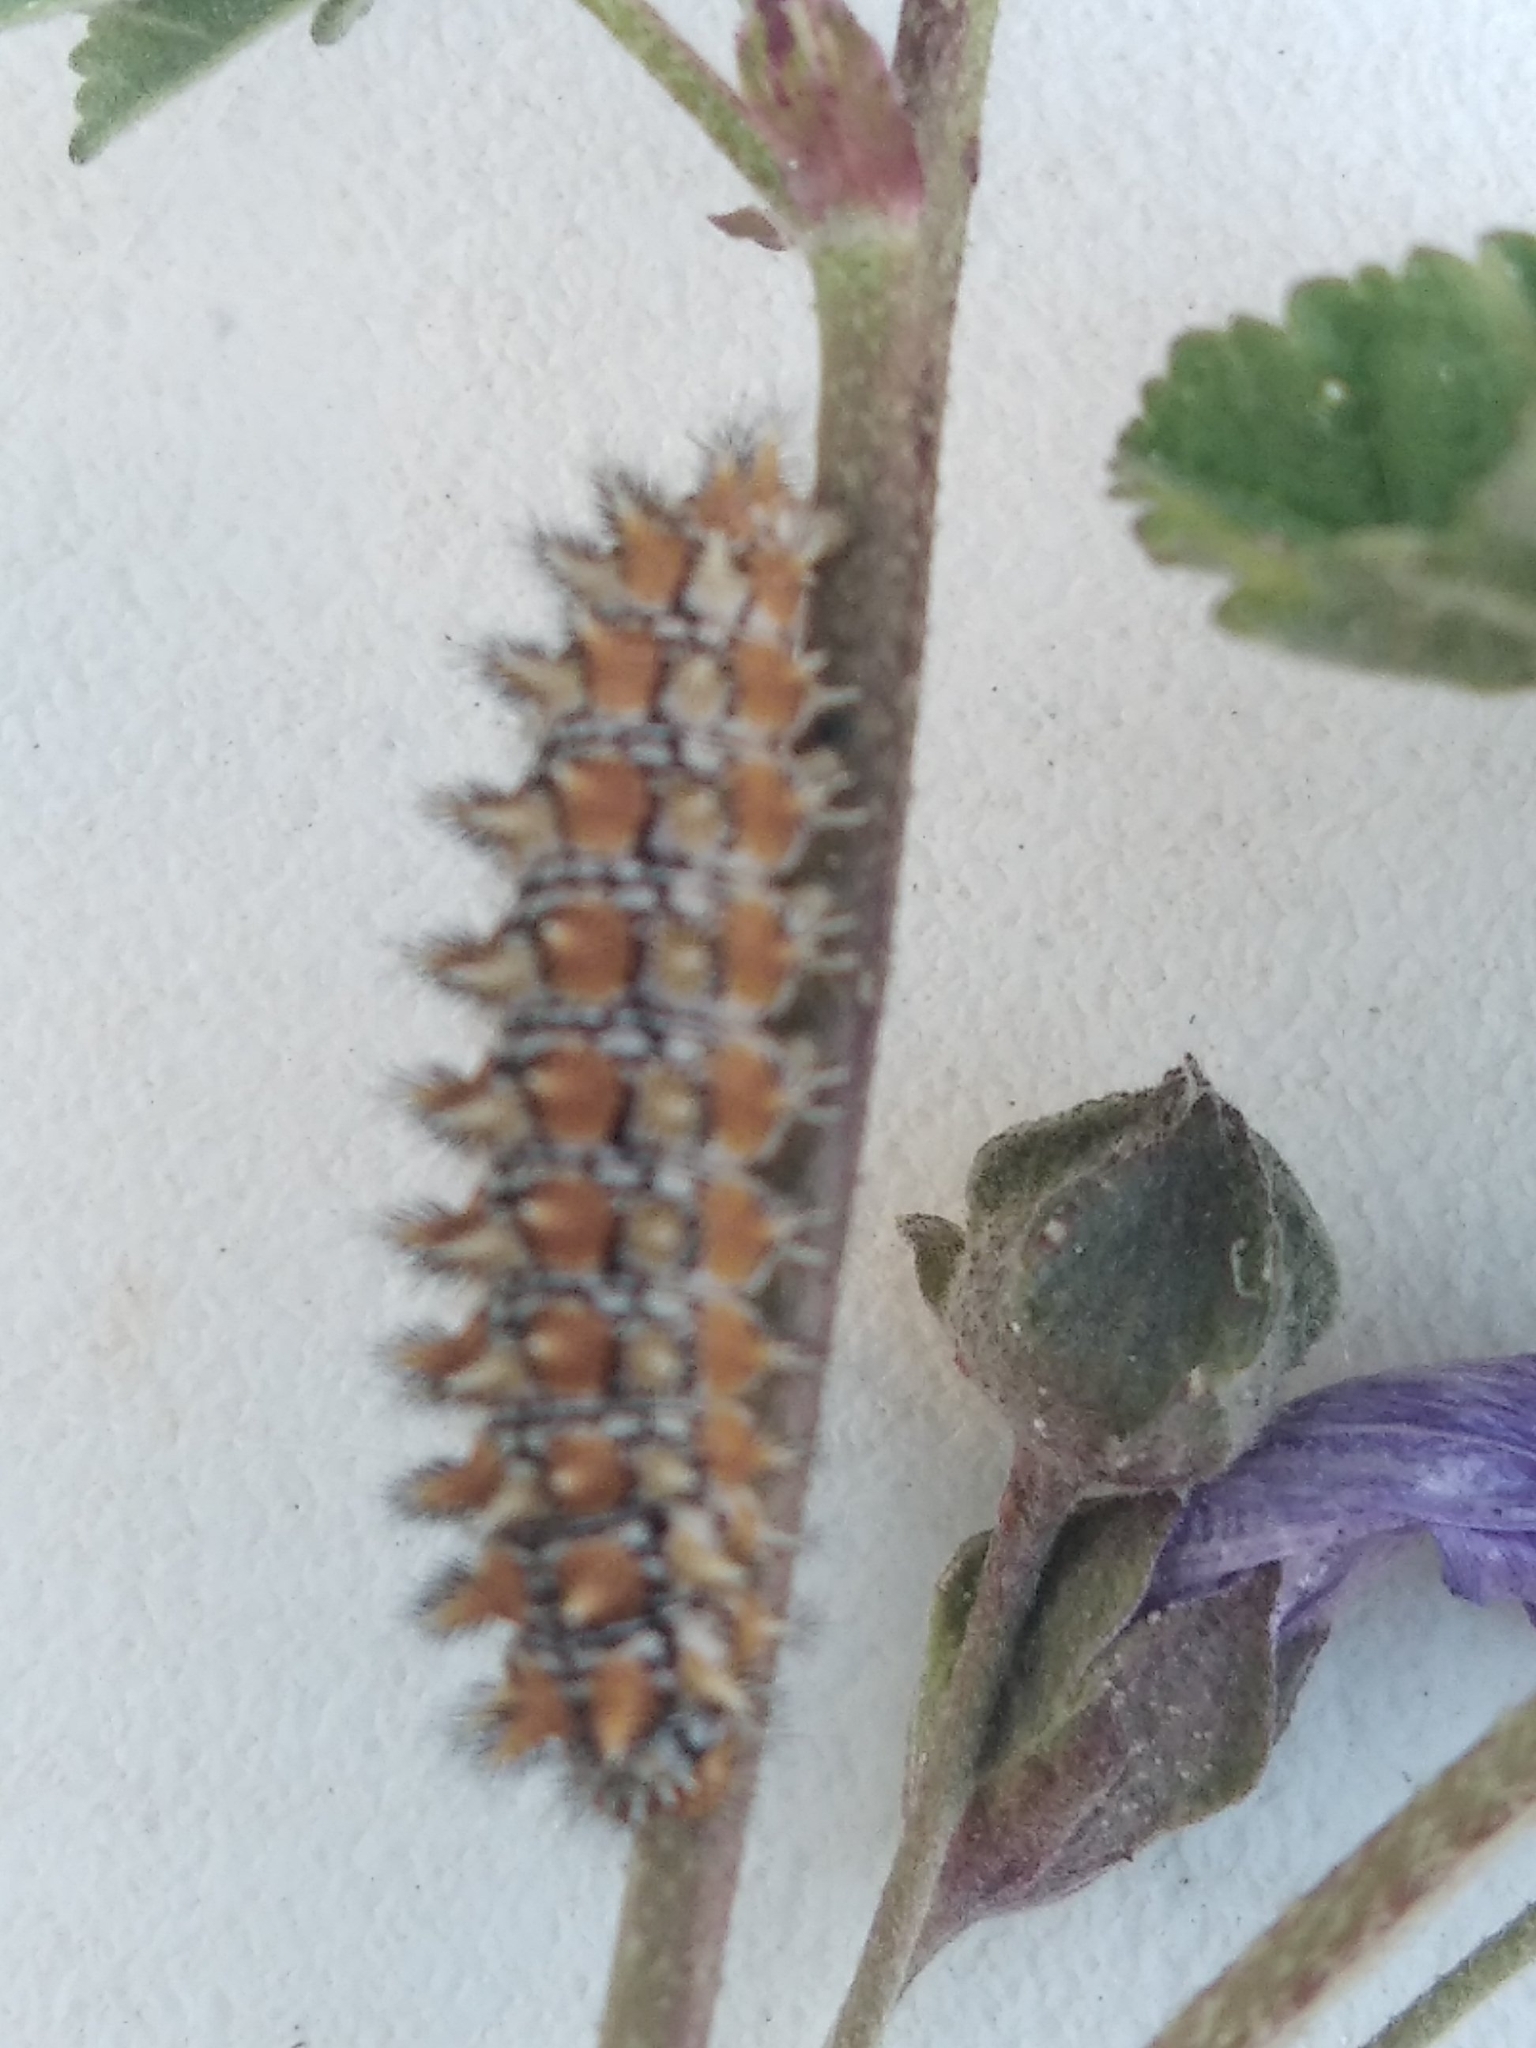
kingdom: Animalia
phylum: Arthropoda
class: Insecta
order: Lepidoptera
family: Nymphalidae
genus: Melitaea
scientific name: Melitaea didyma
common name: Spotted fritillary
